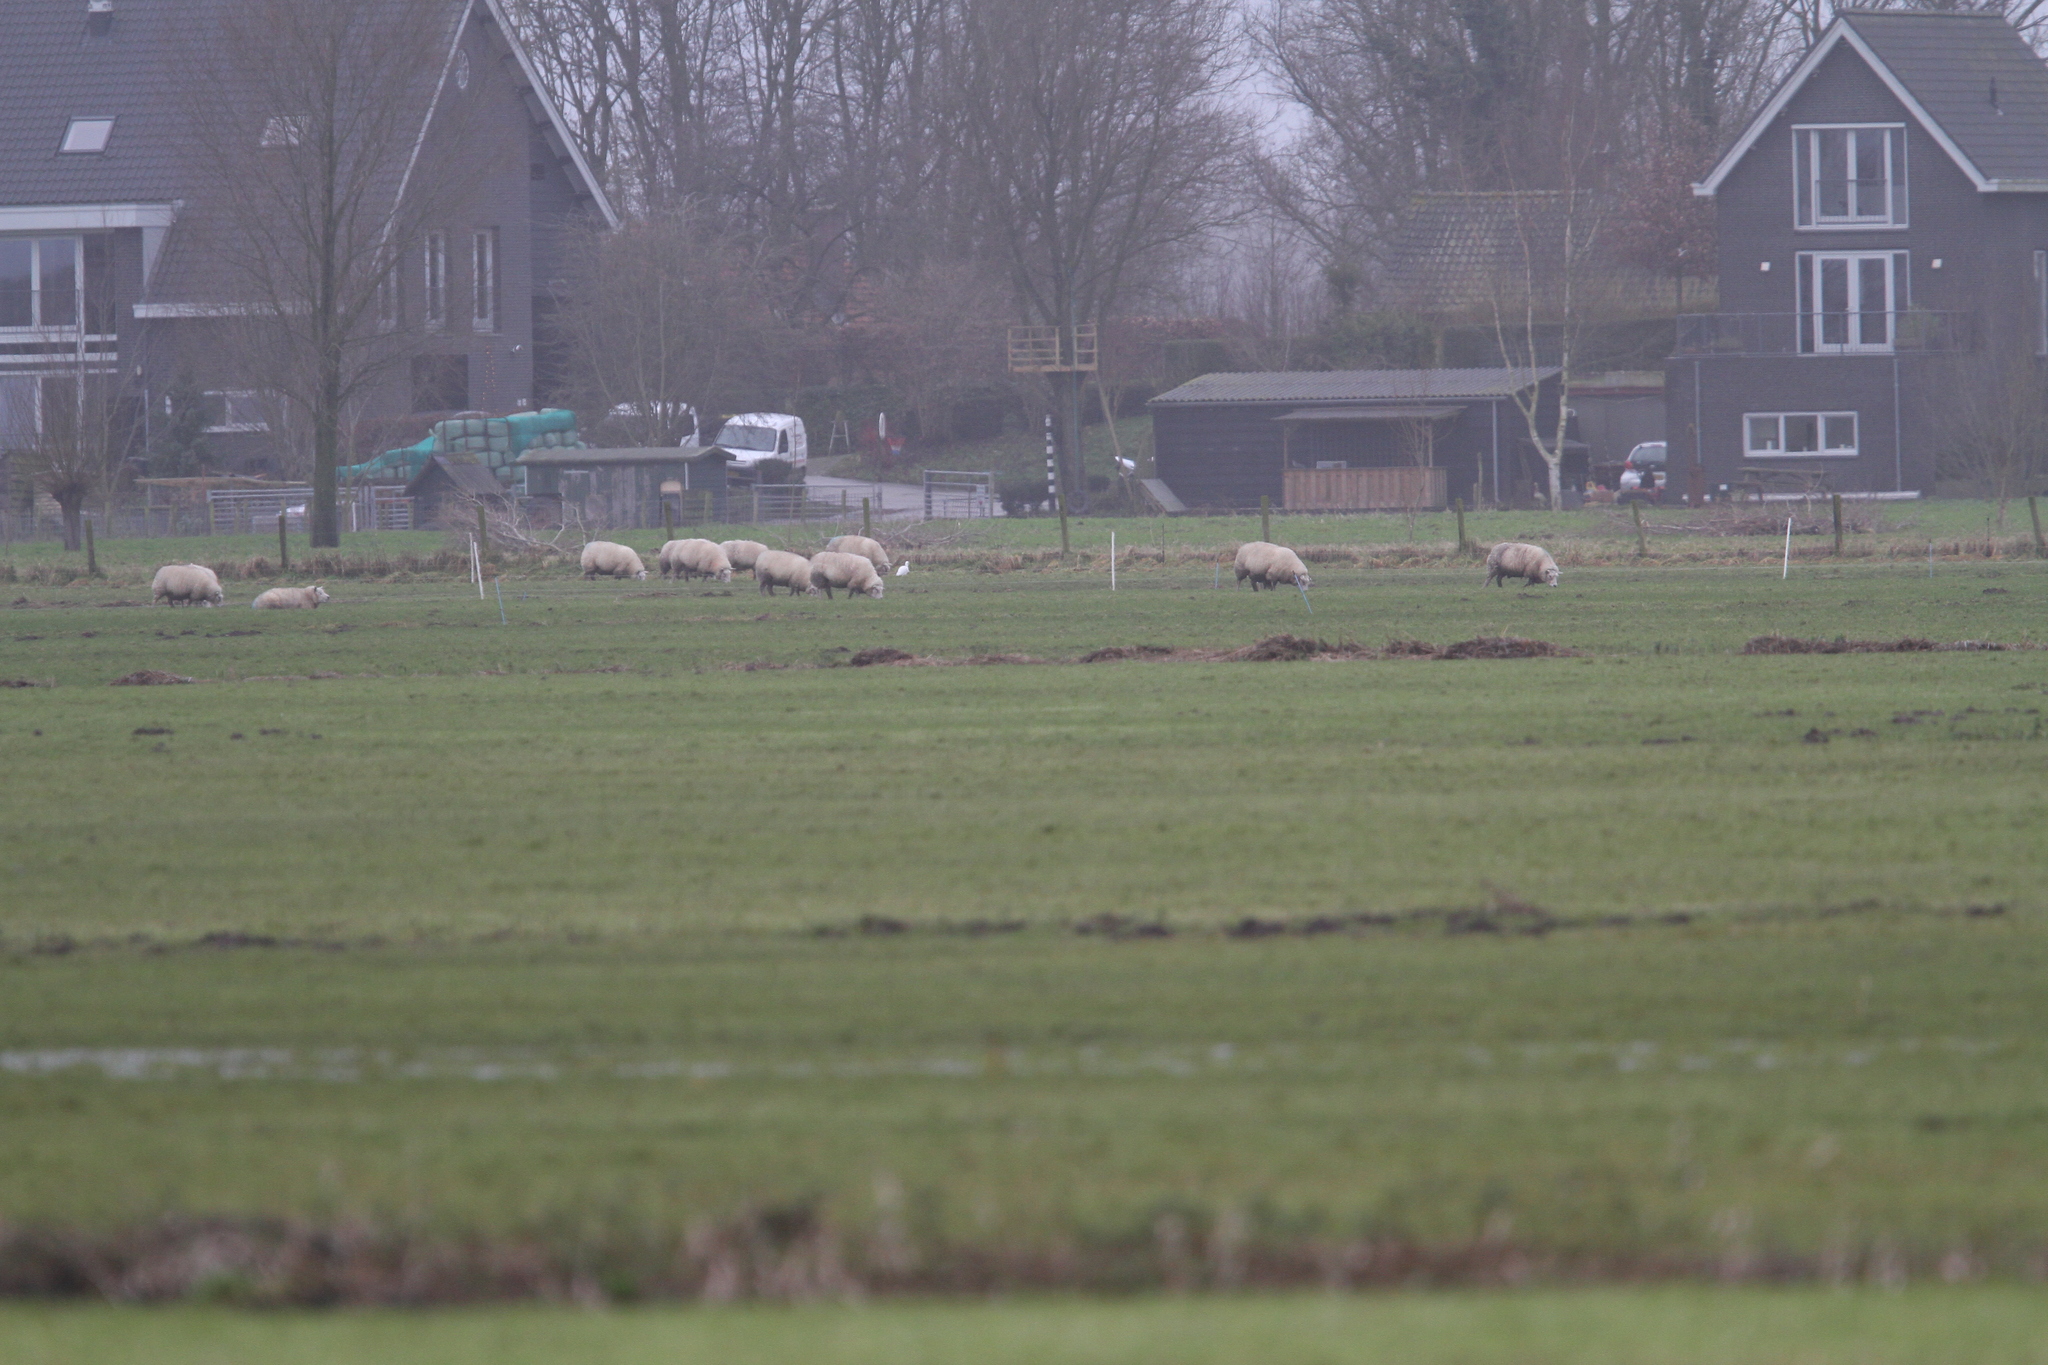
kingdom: Animalia
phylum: Chordata
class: Aves
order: Pelecaniformes
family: Ardeidae
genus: Bubulcus
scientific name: Bubulcus ibis
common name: Cattle egret
